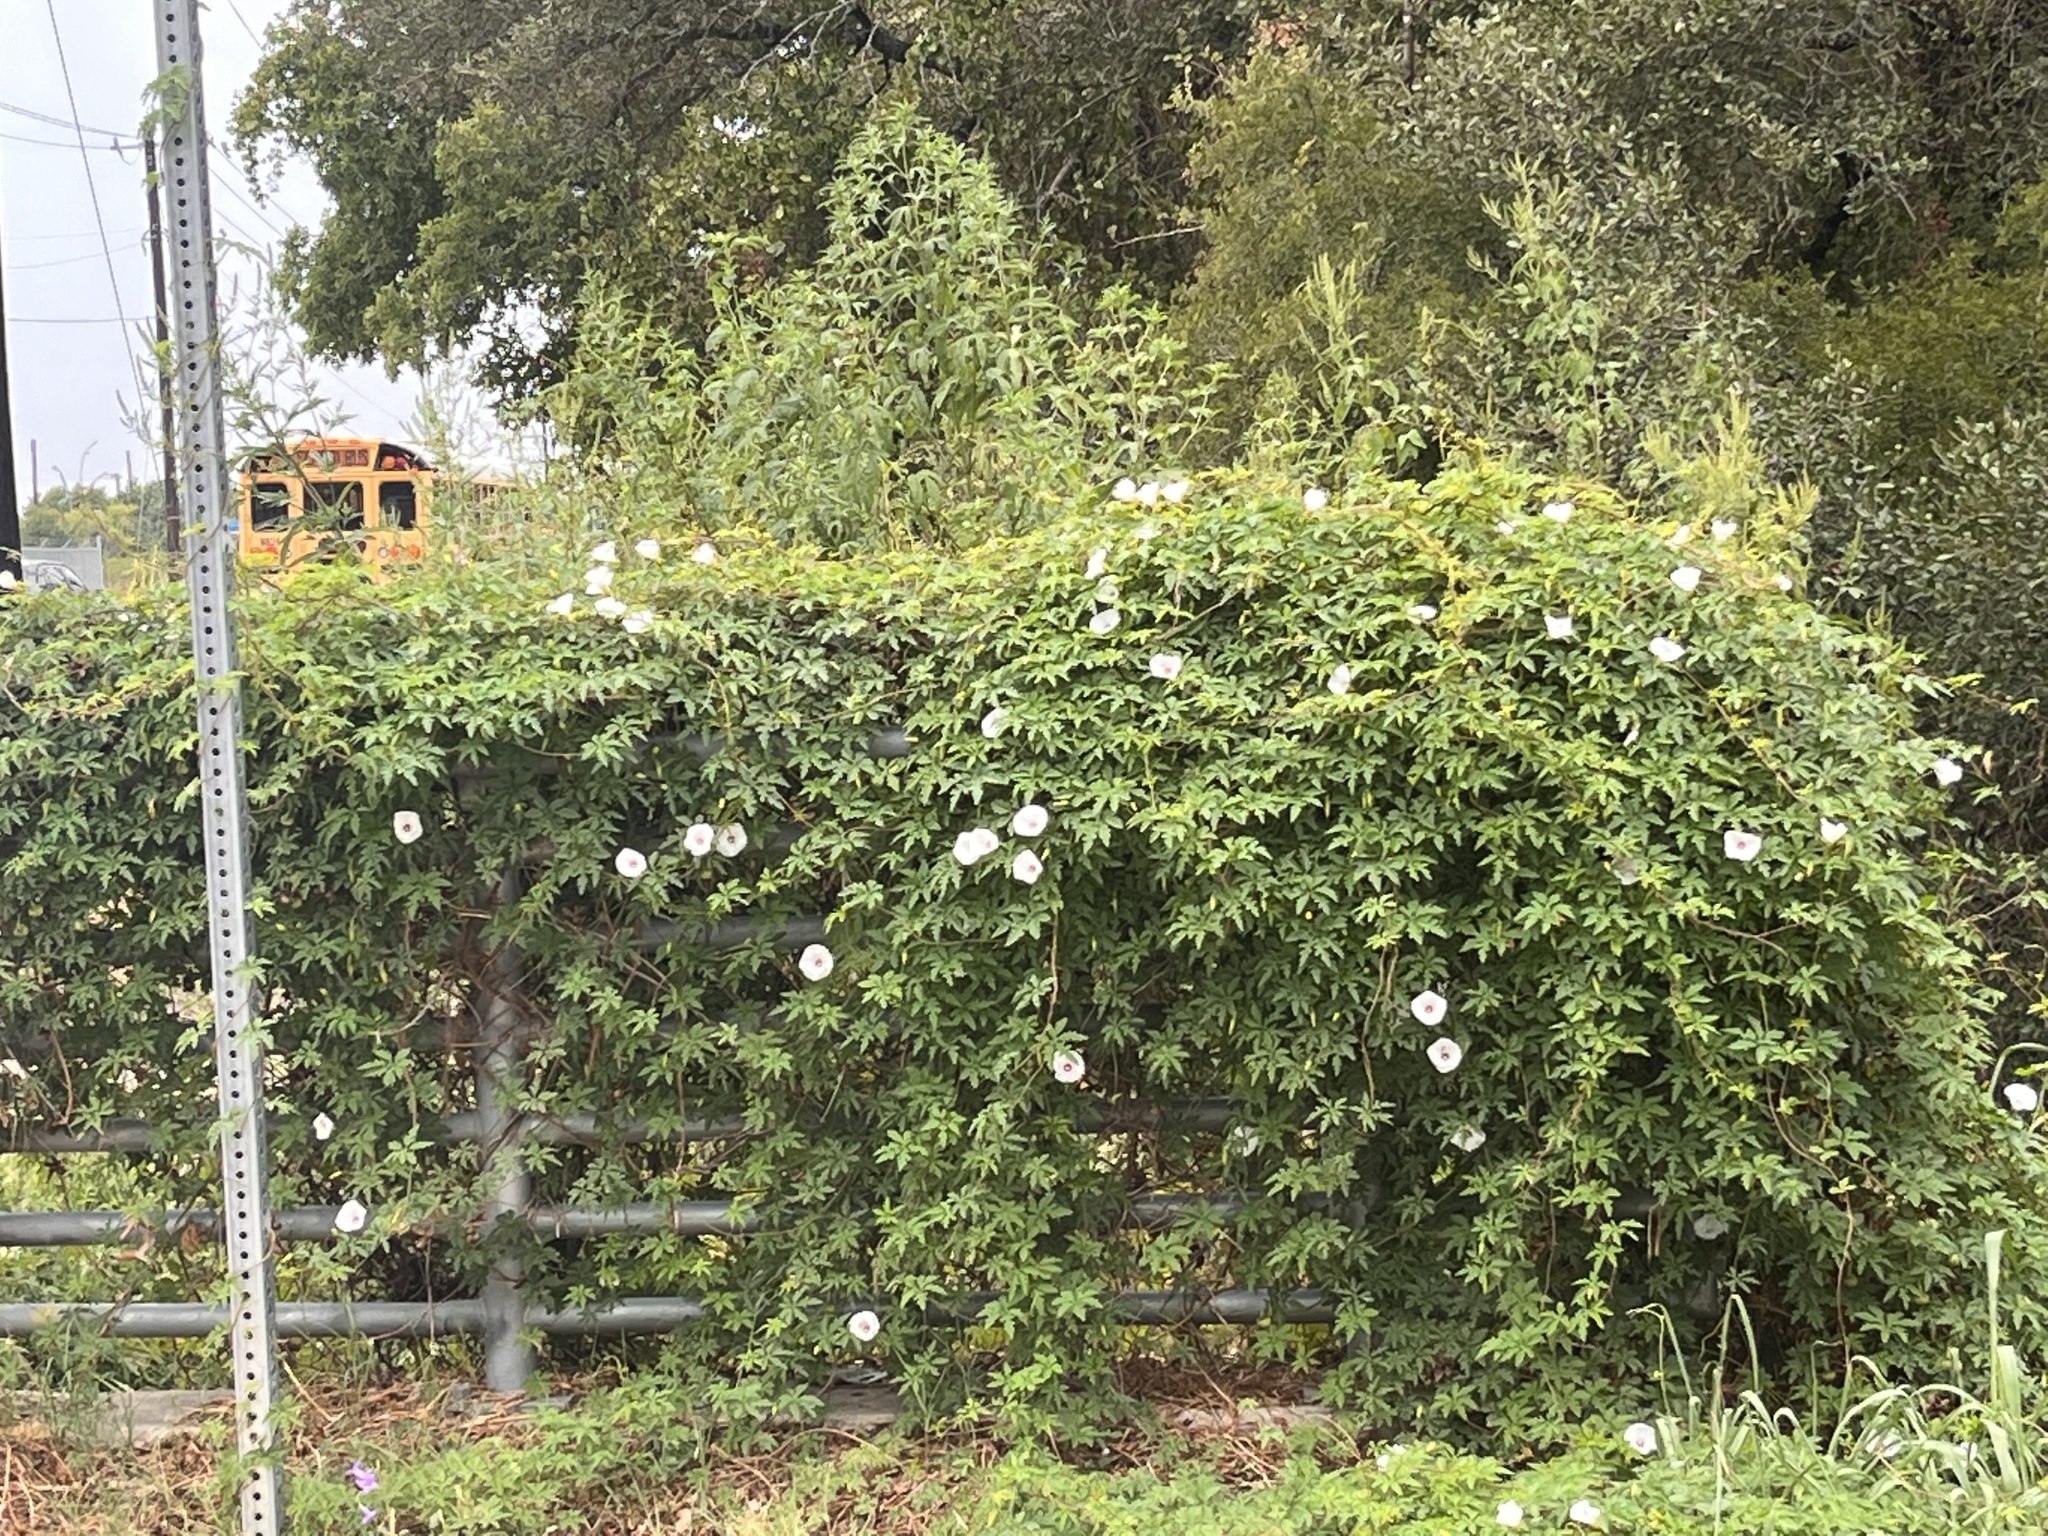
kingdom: Plantae
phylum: Tracheophyta
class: Magnoliopsida
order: Solanales
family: Convolvulaceae
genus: Distimake
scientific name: Distimake dissectus
